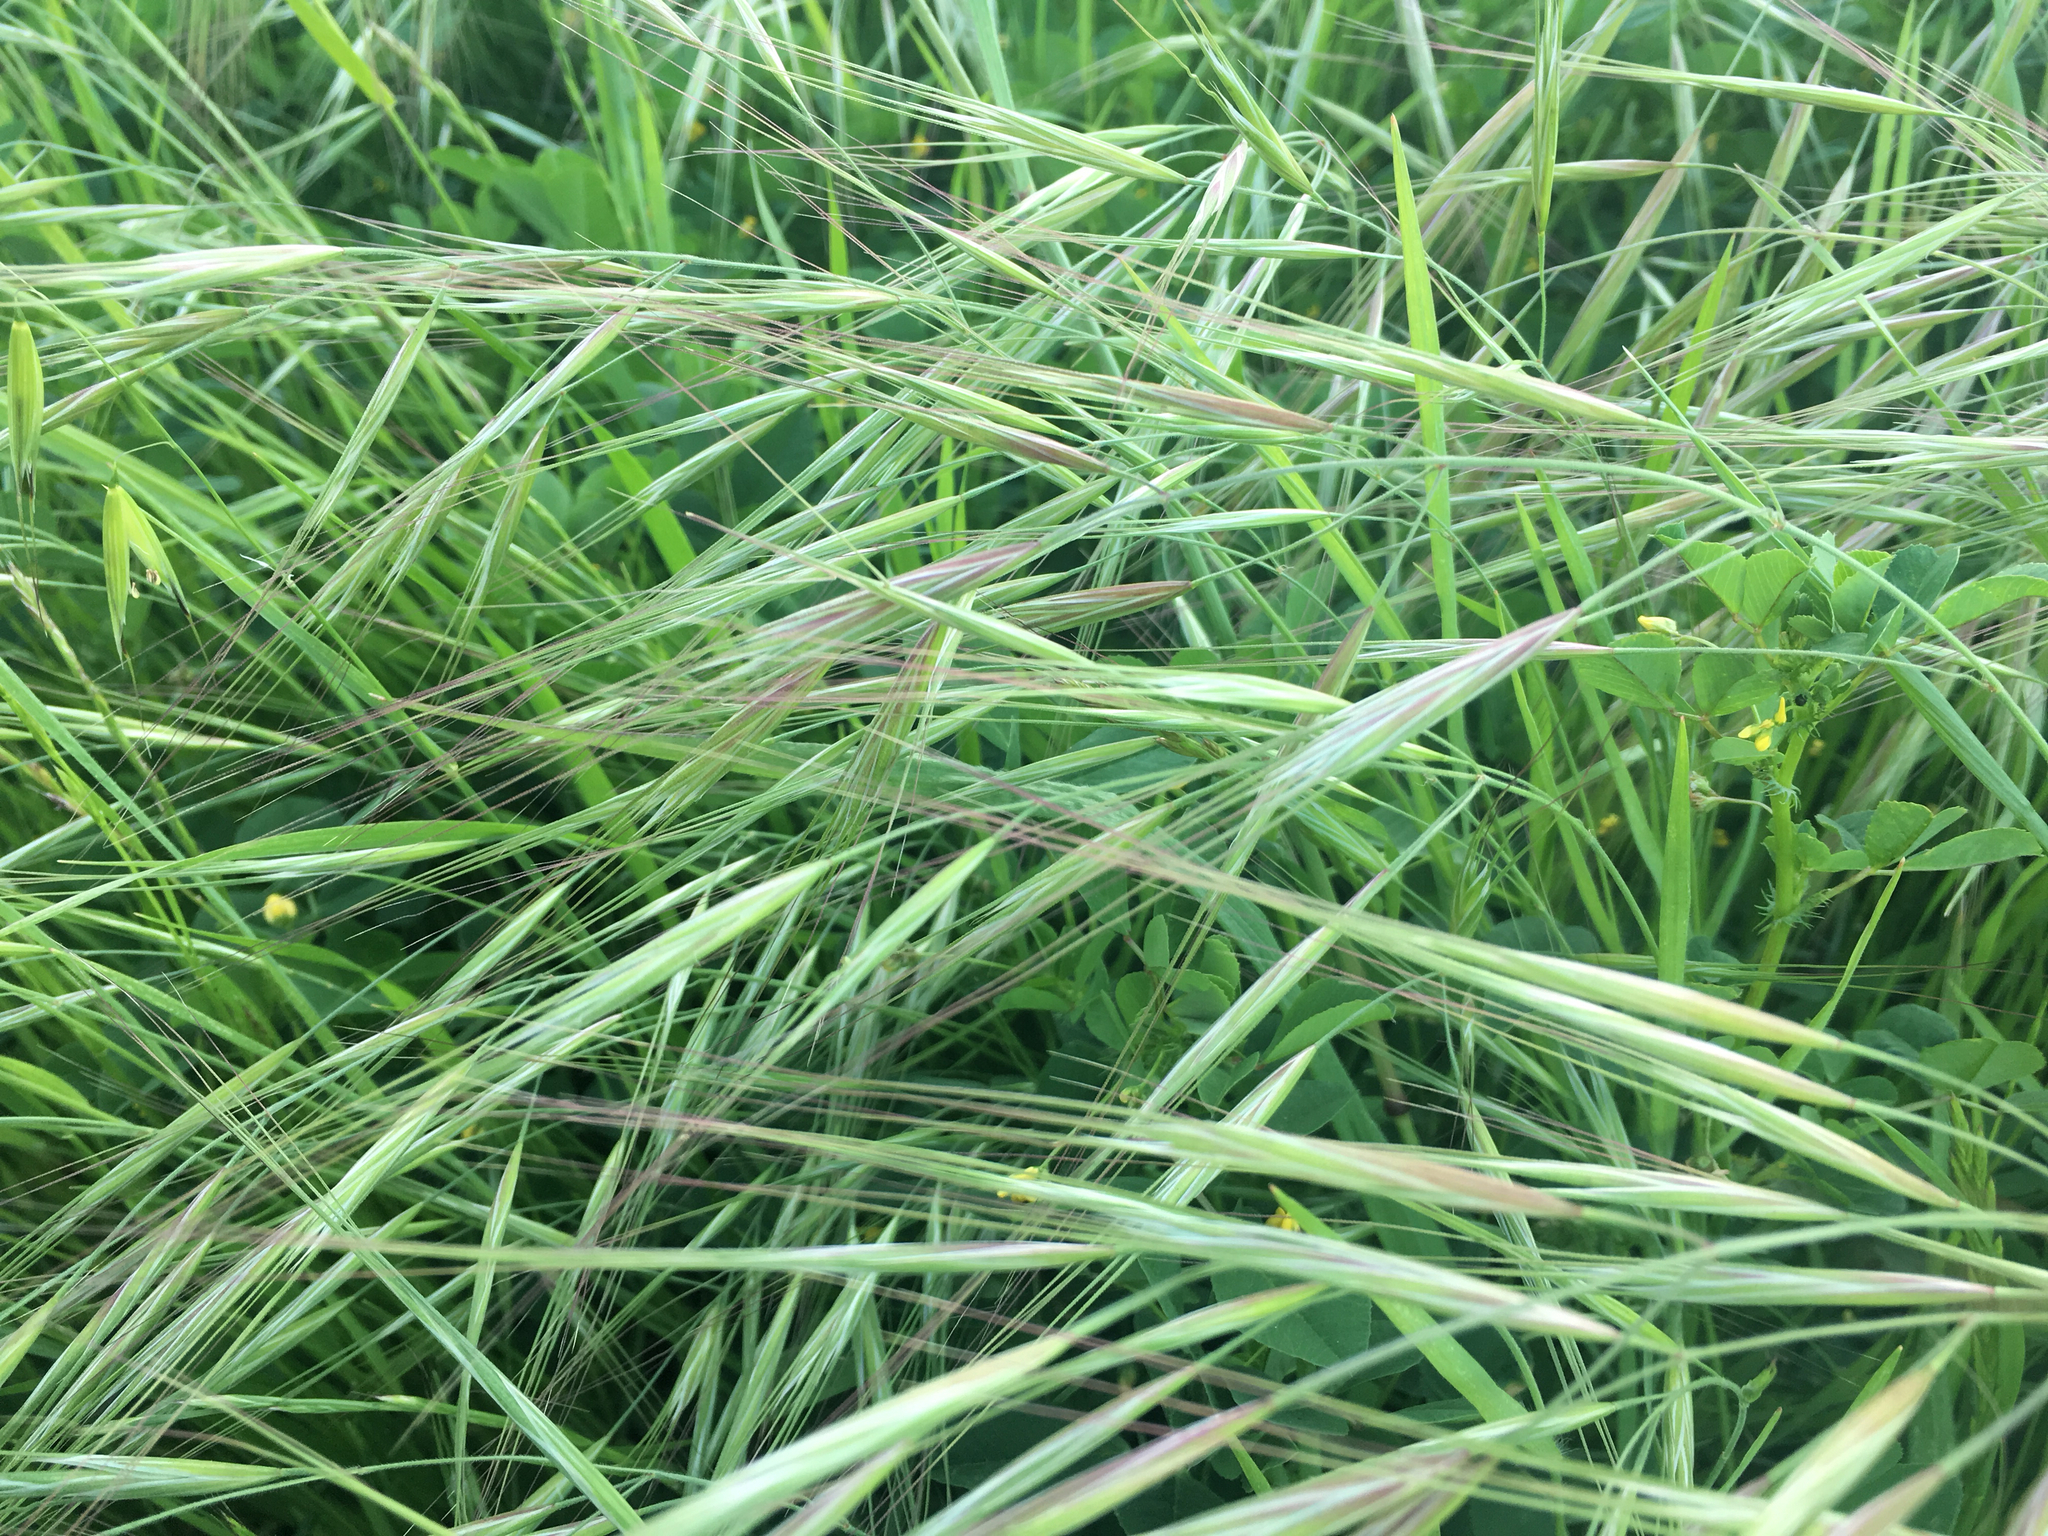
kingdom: Plantae
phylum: Tracheophyta
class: Liliopsida
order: Poales
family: Poaceae
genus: Bromus
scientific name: Bromus diandrus
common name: Ripgut brome
